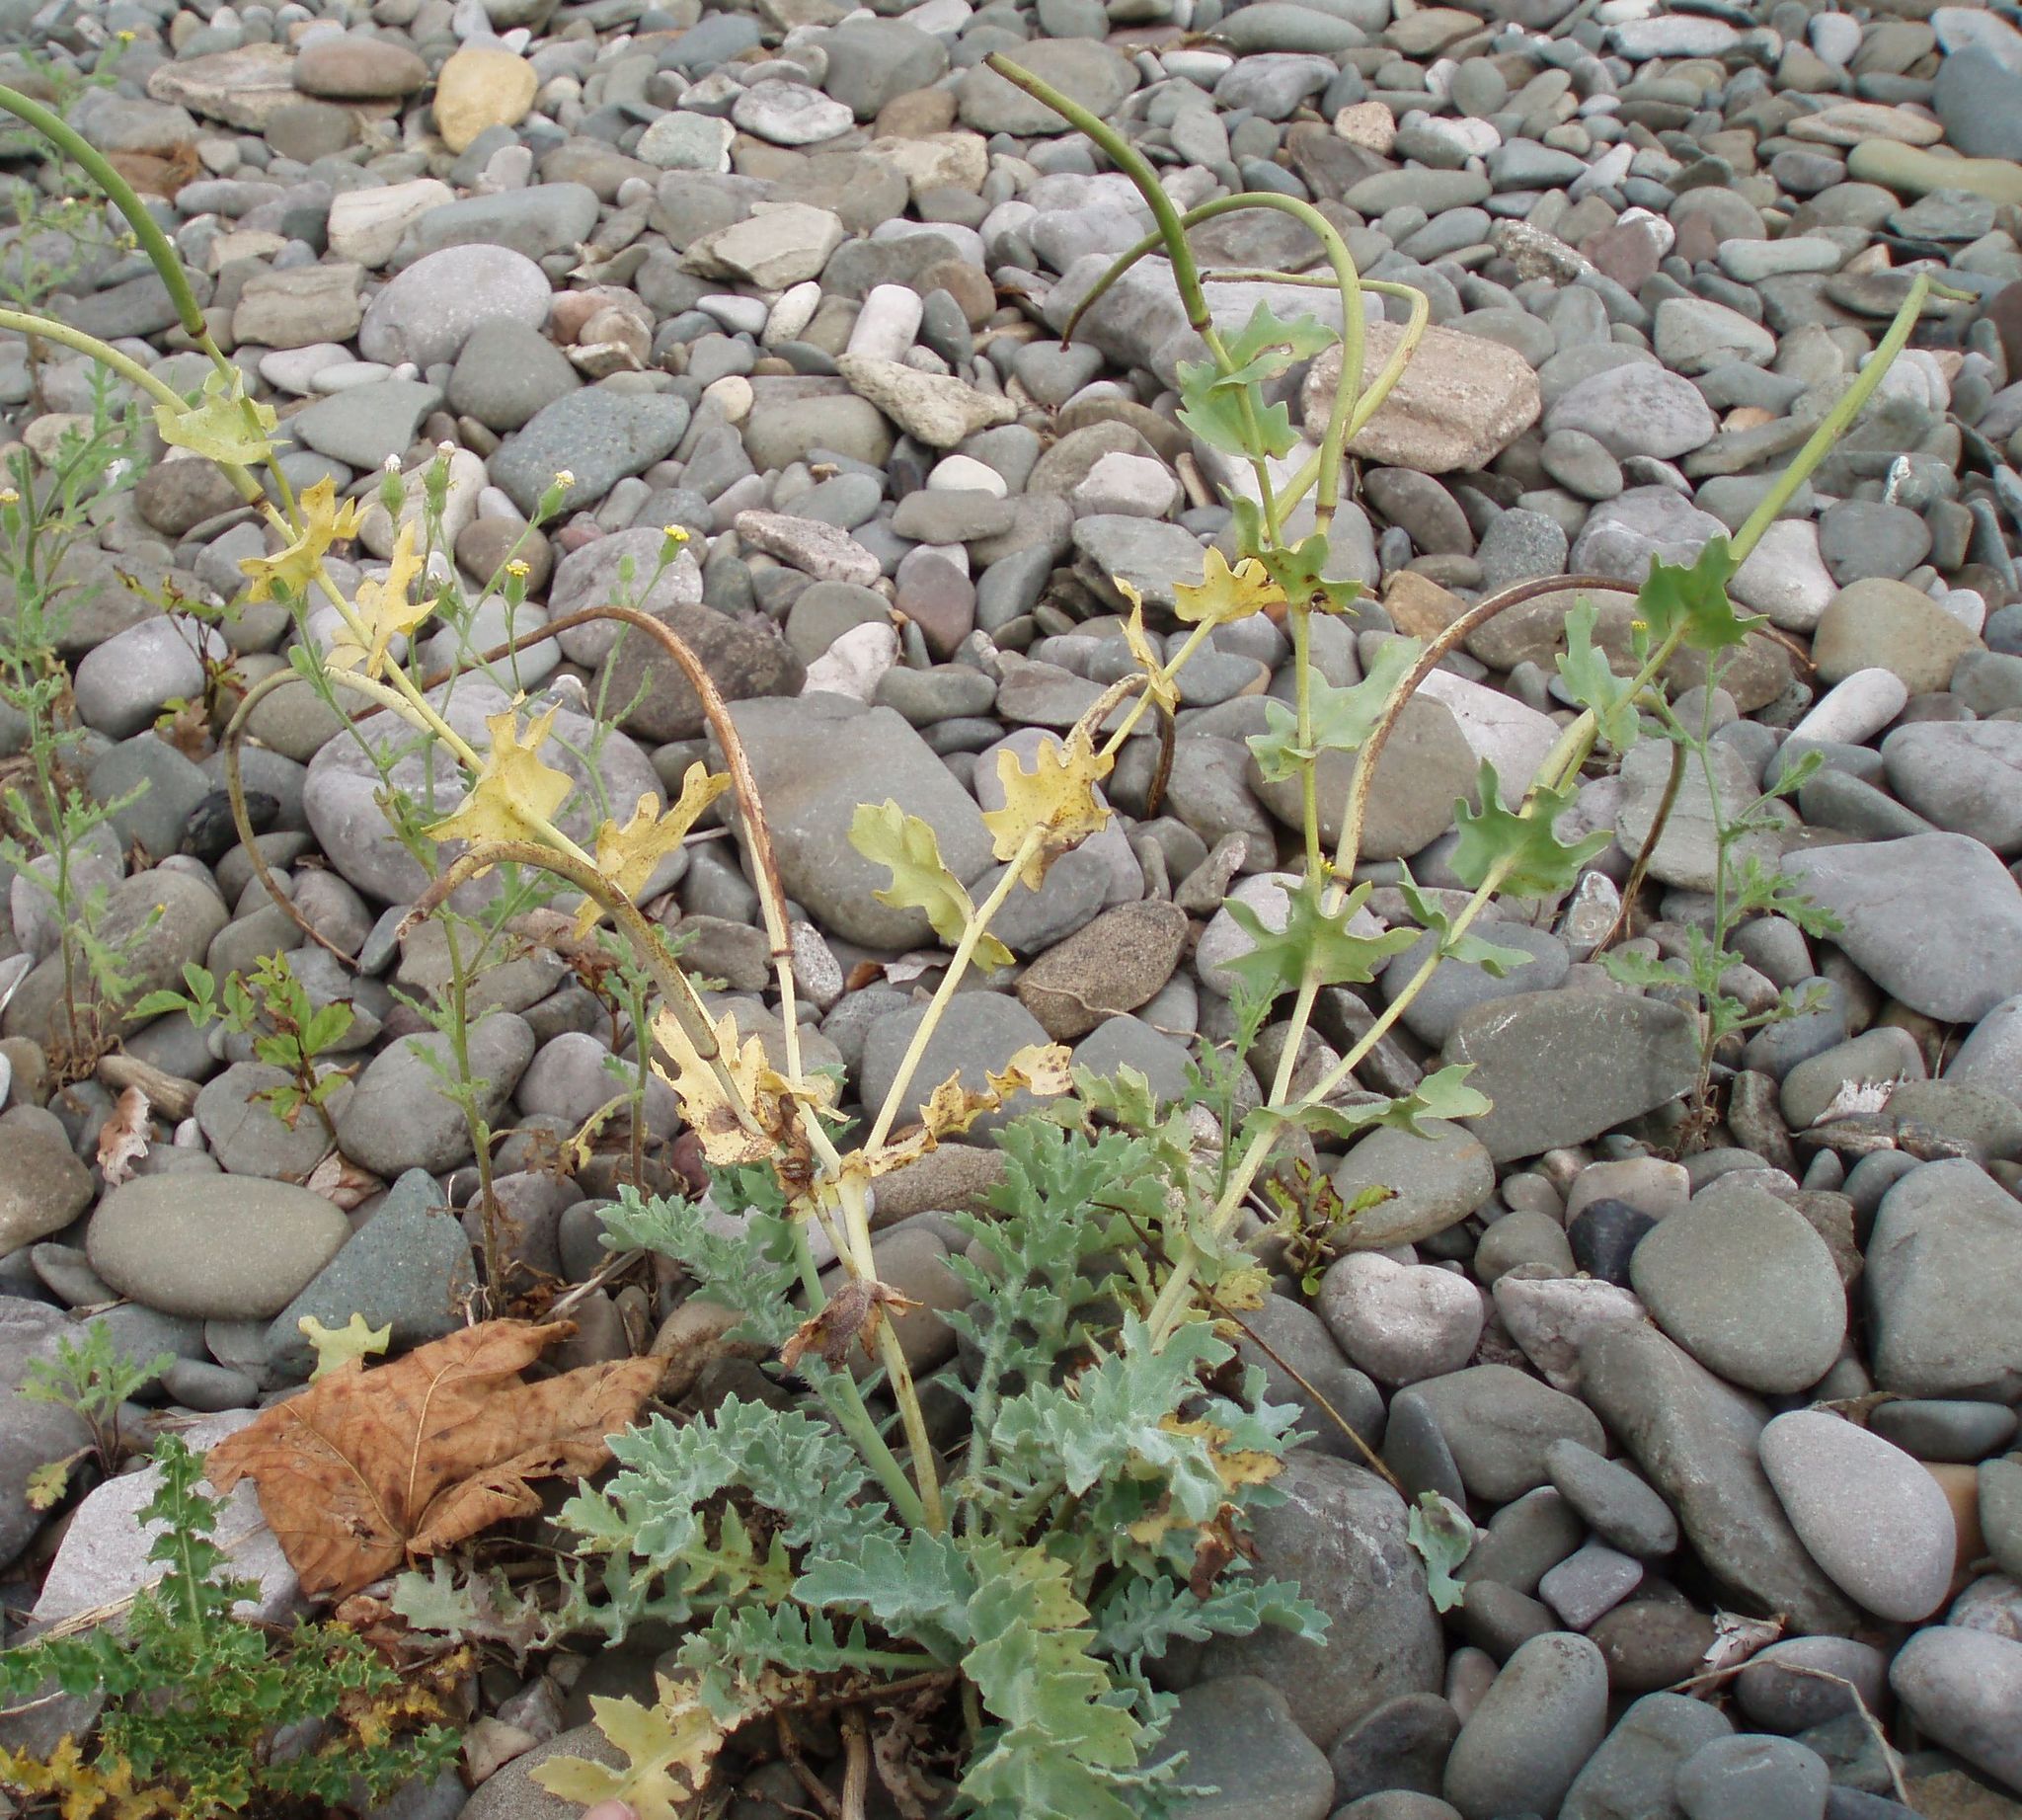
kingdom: Plantae
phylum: Tracheophyta
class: Magnoliopsida
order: Ranunculales
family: Papaveraceae
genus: Glaucium
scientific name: Glaucium flavum
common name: Yellow horned-poppy
